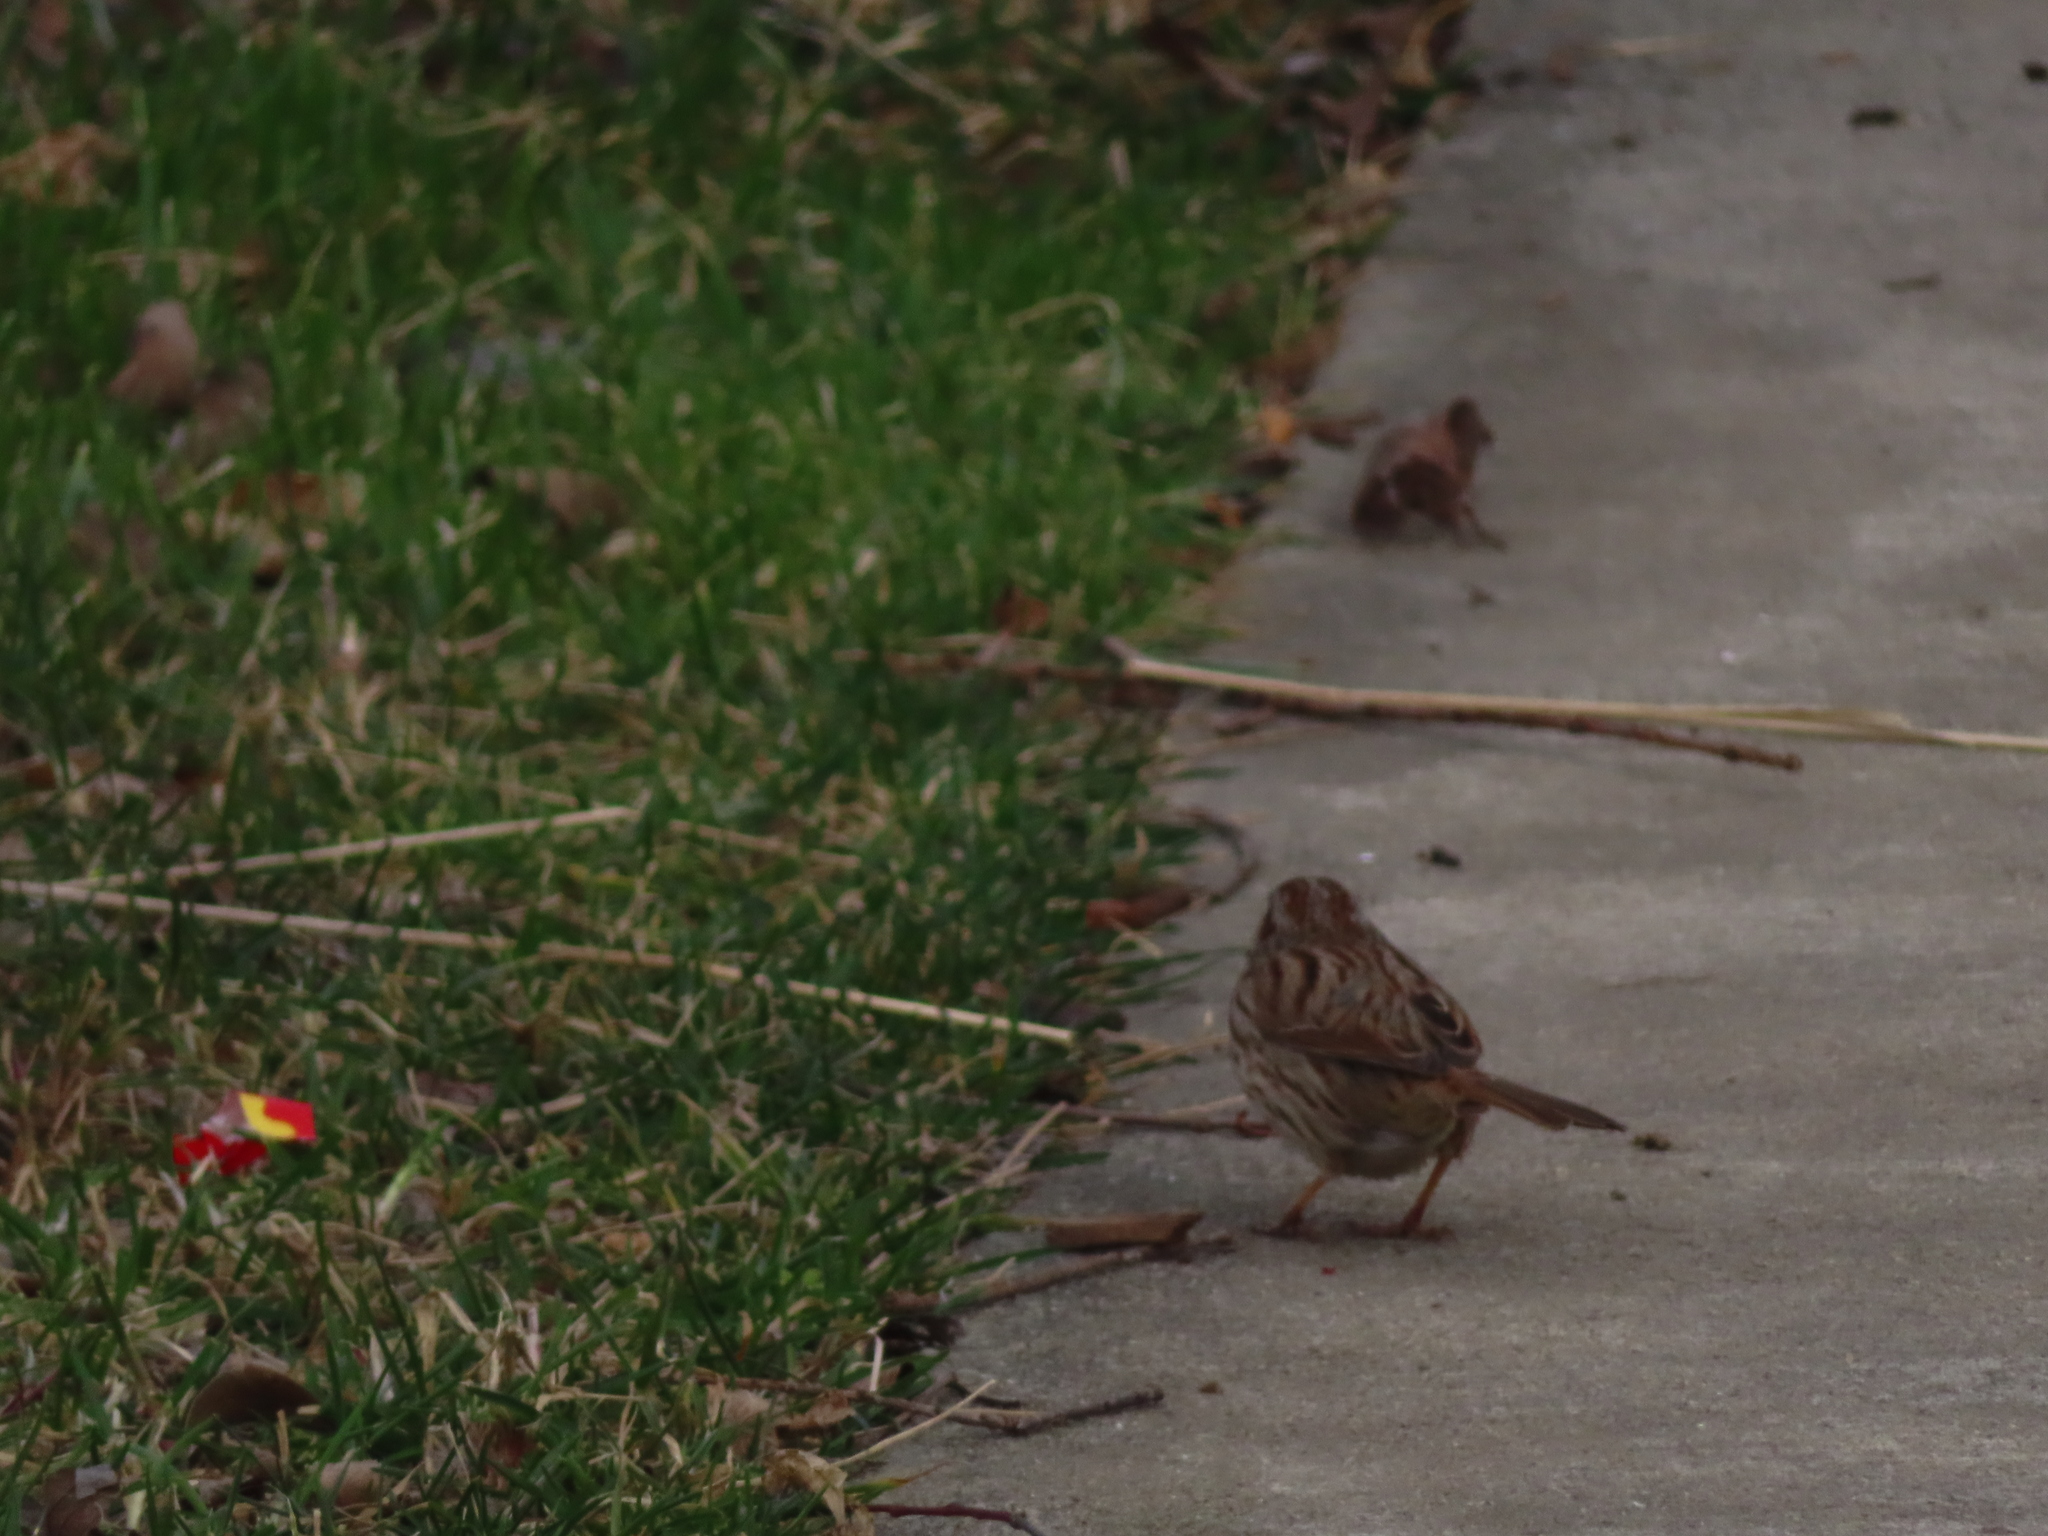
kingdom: Animalia
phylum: Chordata
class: Aves
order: Passeriformes
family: Passerellidae
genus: Melospiza
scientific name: Melospiza melodia
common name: Song sparrow
